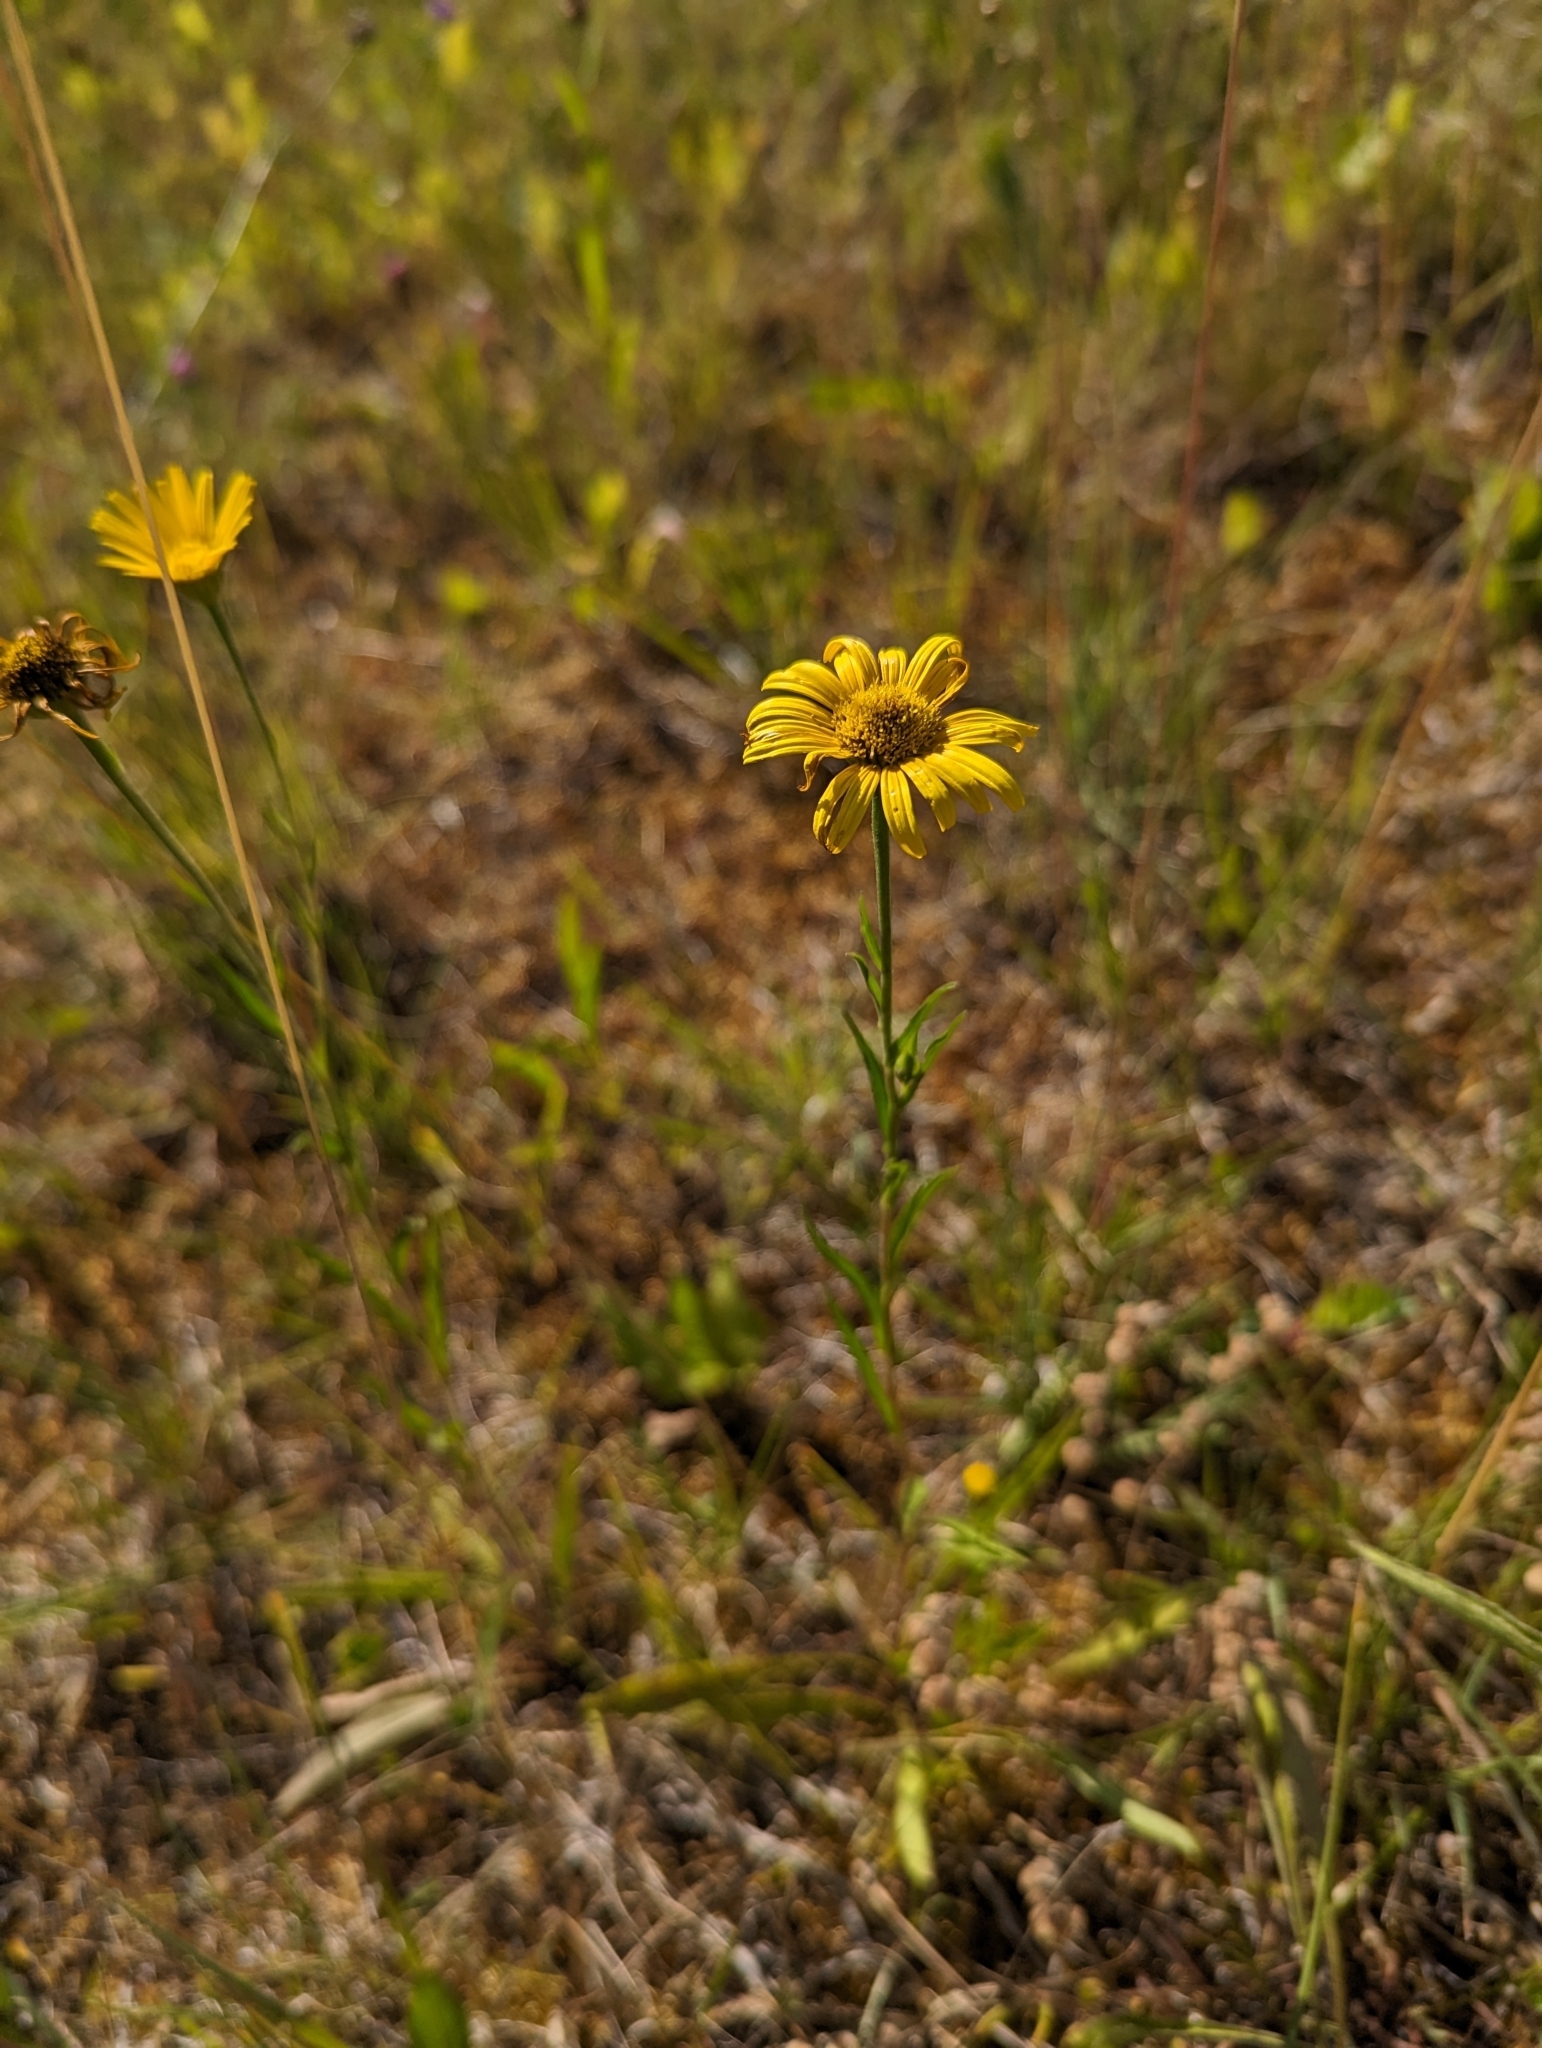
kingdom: Plantae
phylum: Tracheophyta
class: Magnoliopsida
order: Asterales
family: Asteraceae
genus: Buphthalmum
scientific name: Buphthalmum salicifolium
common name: Willow-leaved yellow-oxeye
